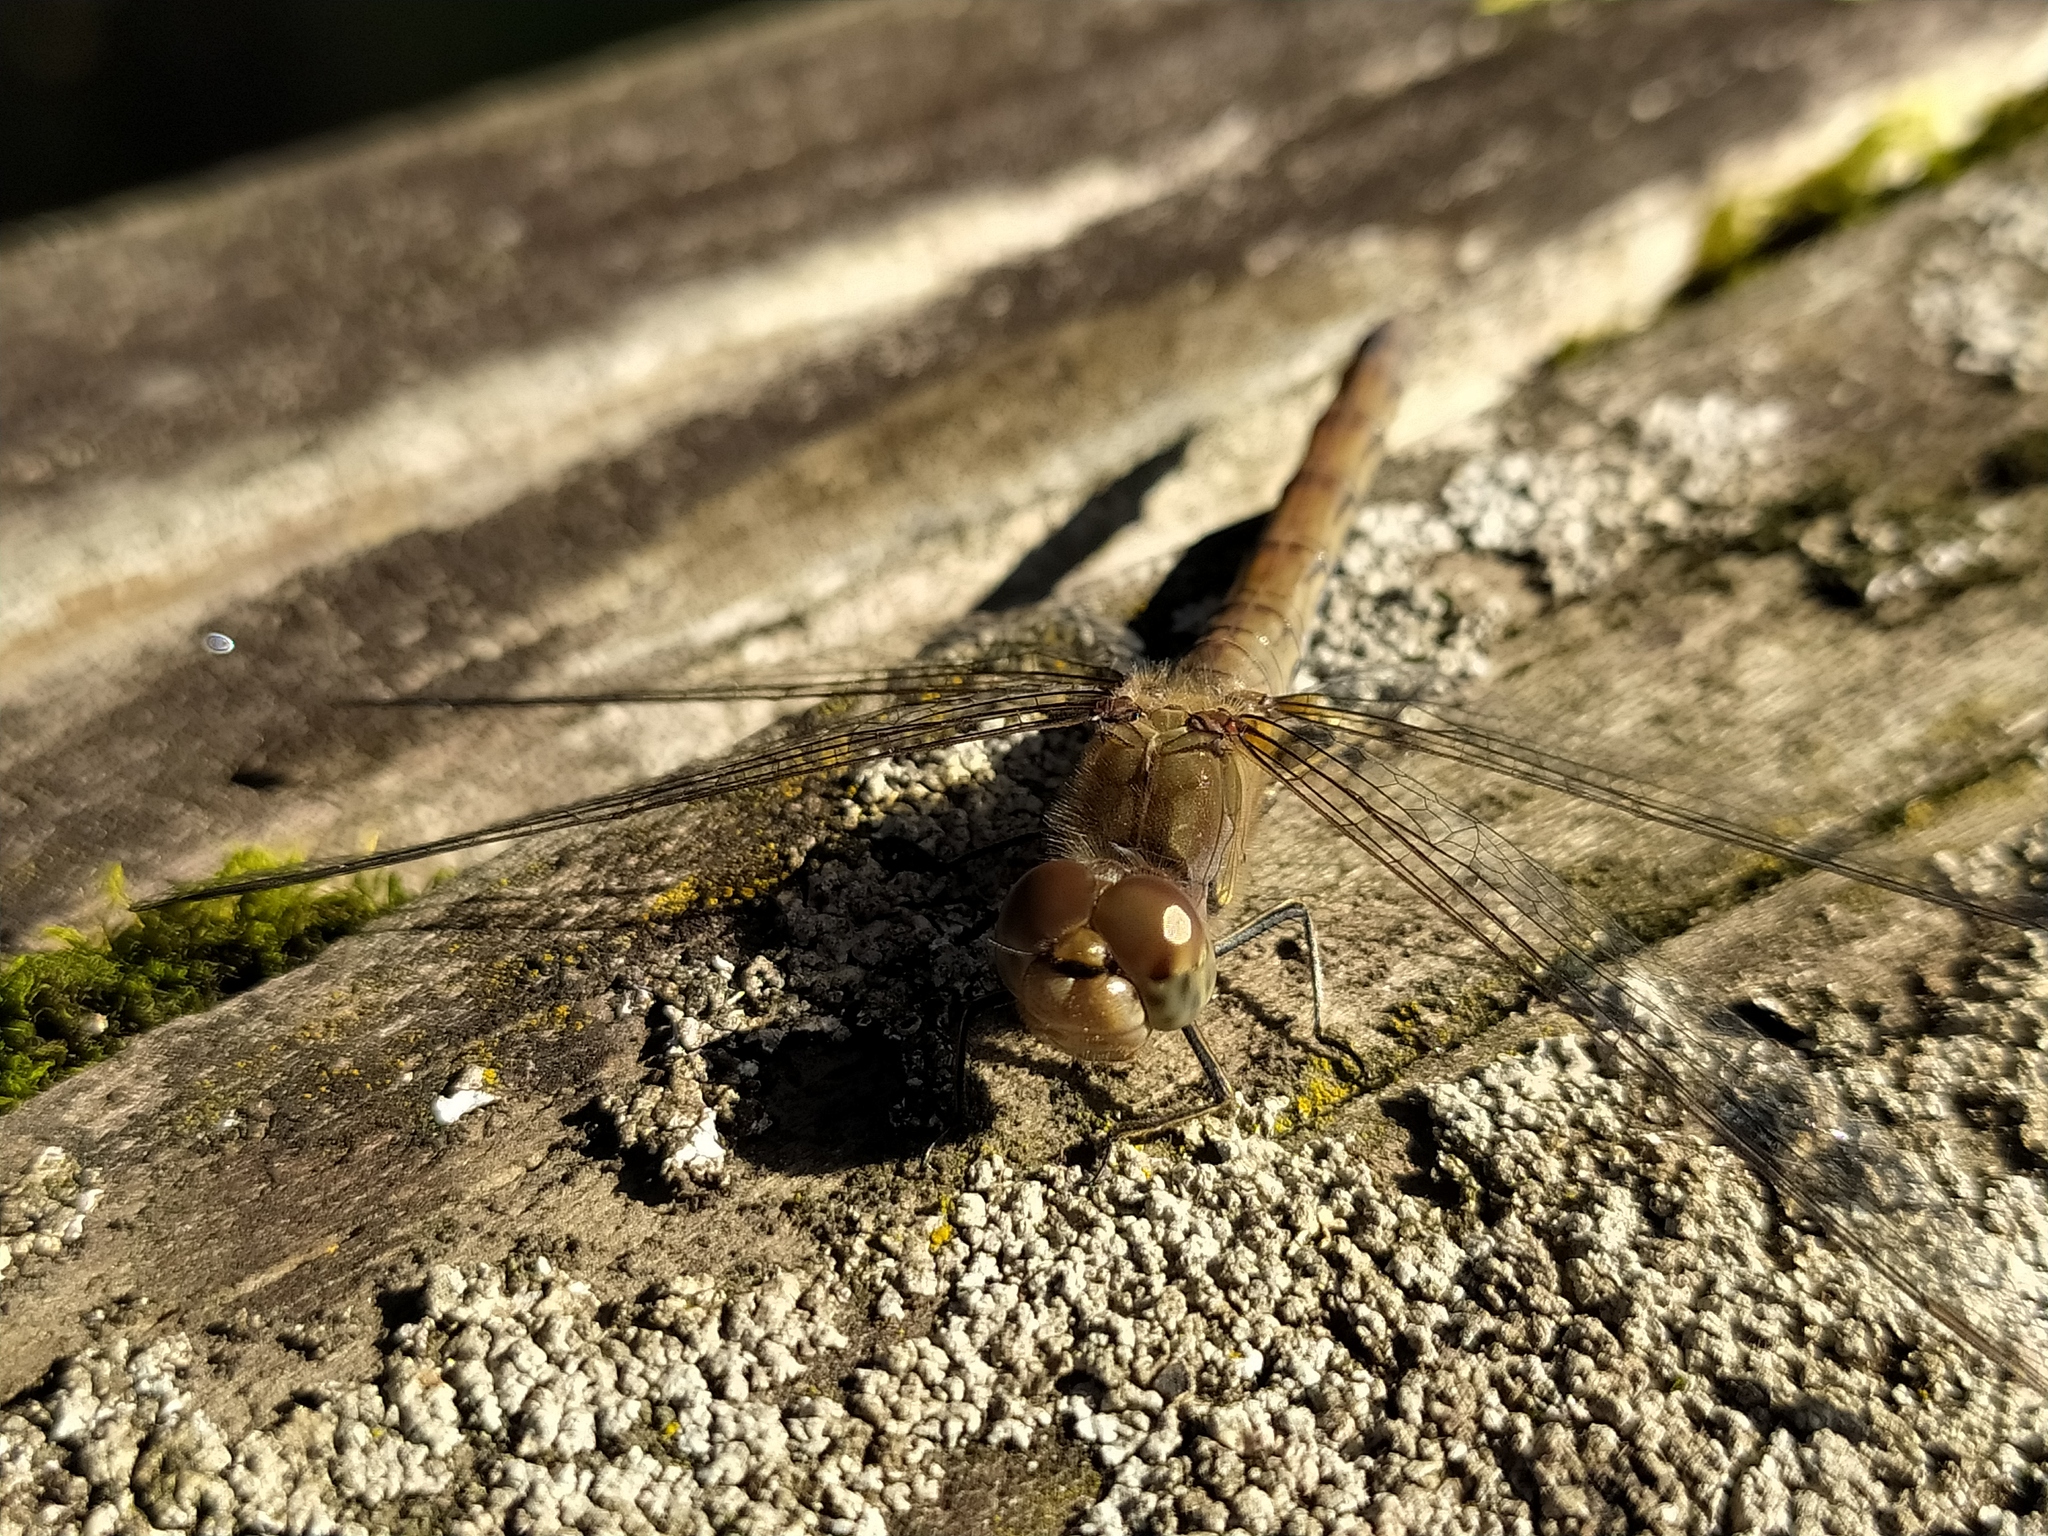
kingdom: Animalia
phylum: Arthropoda
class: Insecta
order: Odonata
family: Libellulidae
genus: Sympetrum
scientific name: Sympetrum striolatum
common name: Common darter
